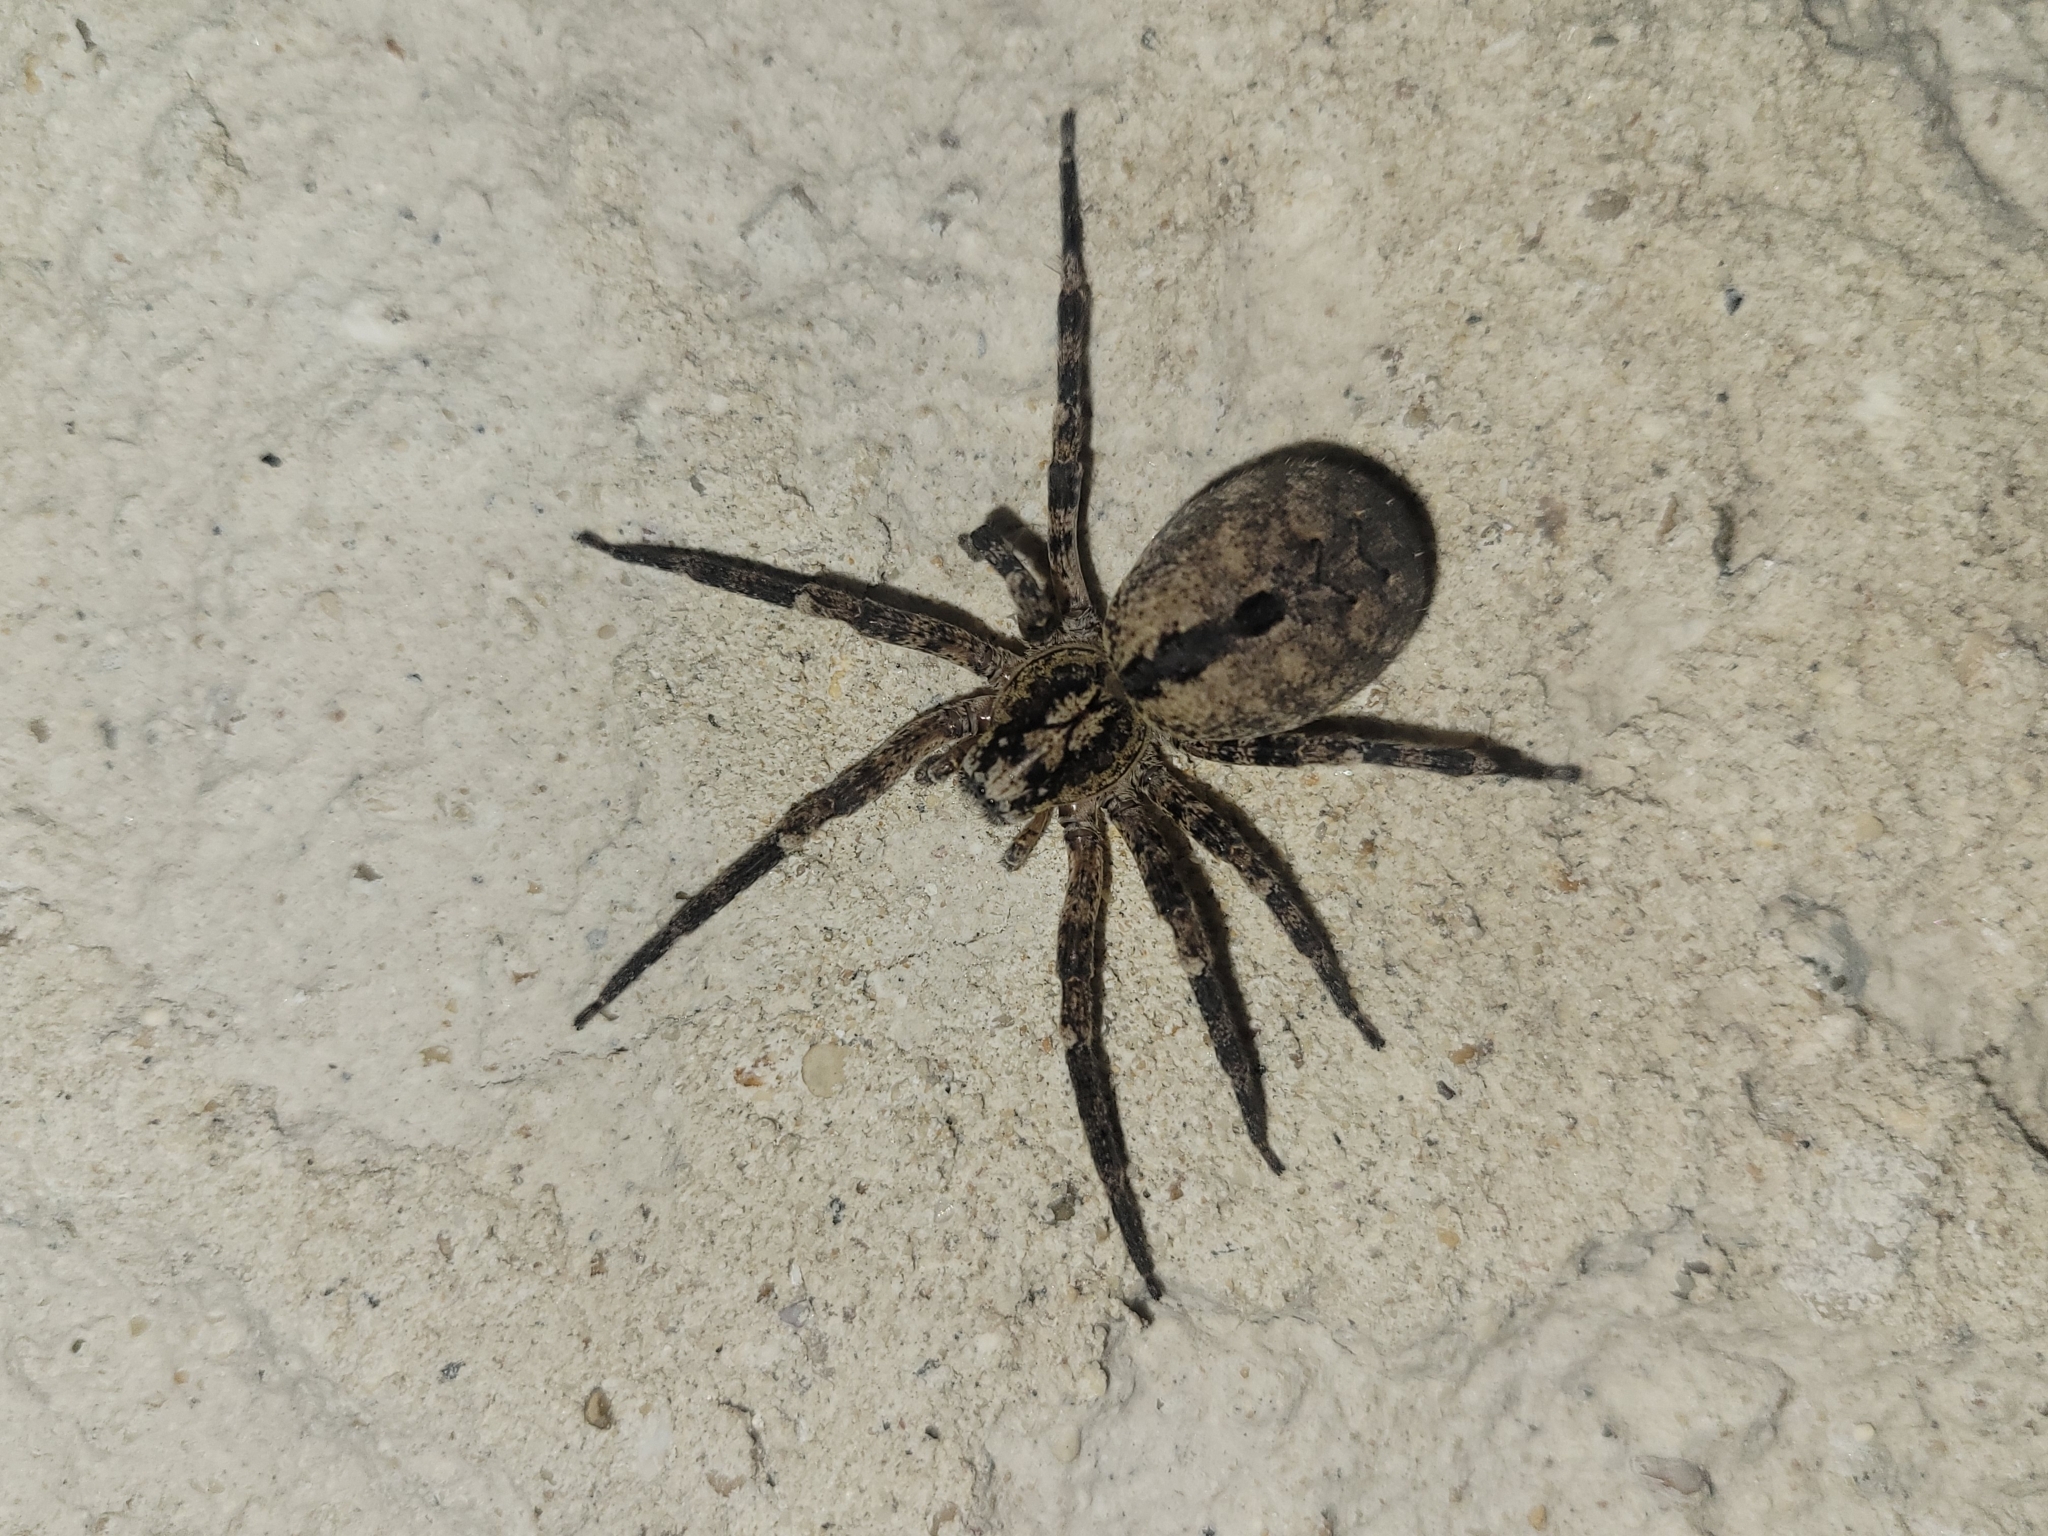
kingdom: Animalia
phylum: Arthropoda
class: Arachnida
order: Araneae
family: Zoropsidae
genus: Zoropsis
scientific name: Zoropsis spinimana
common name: Zoropsid spider
